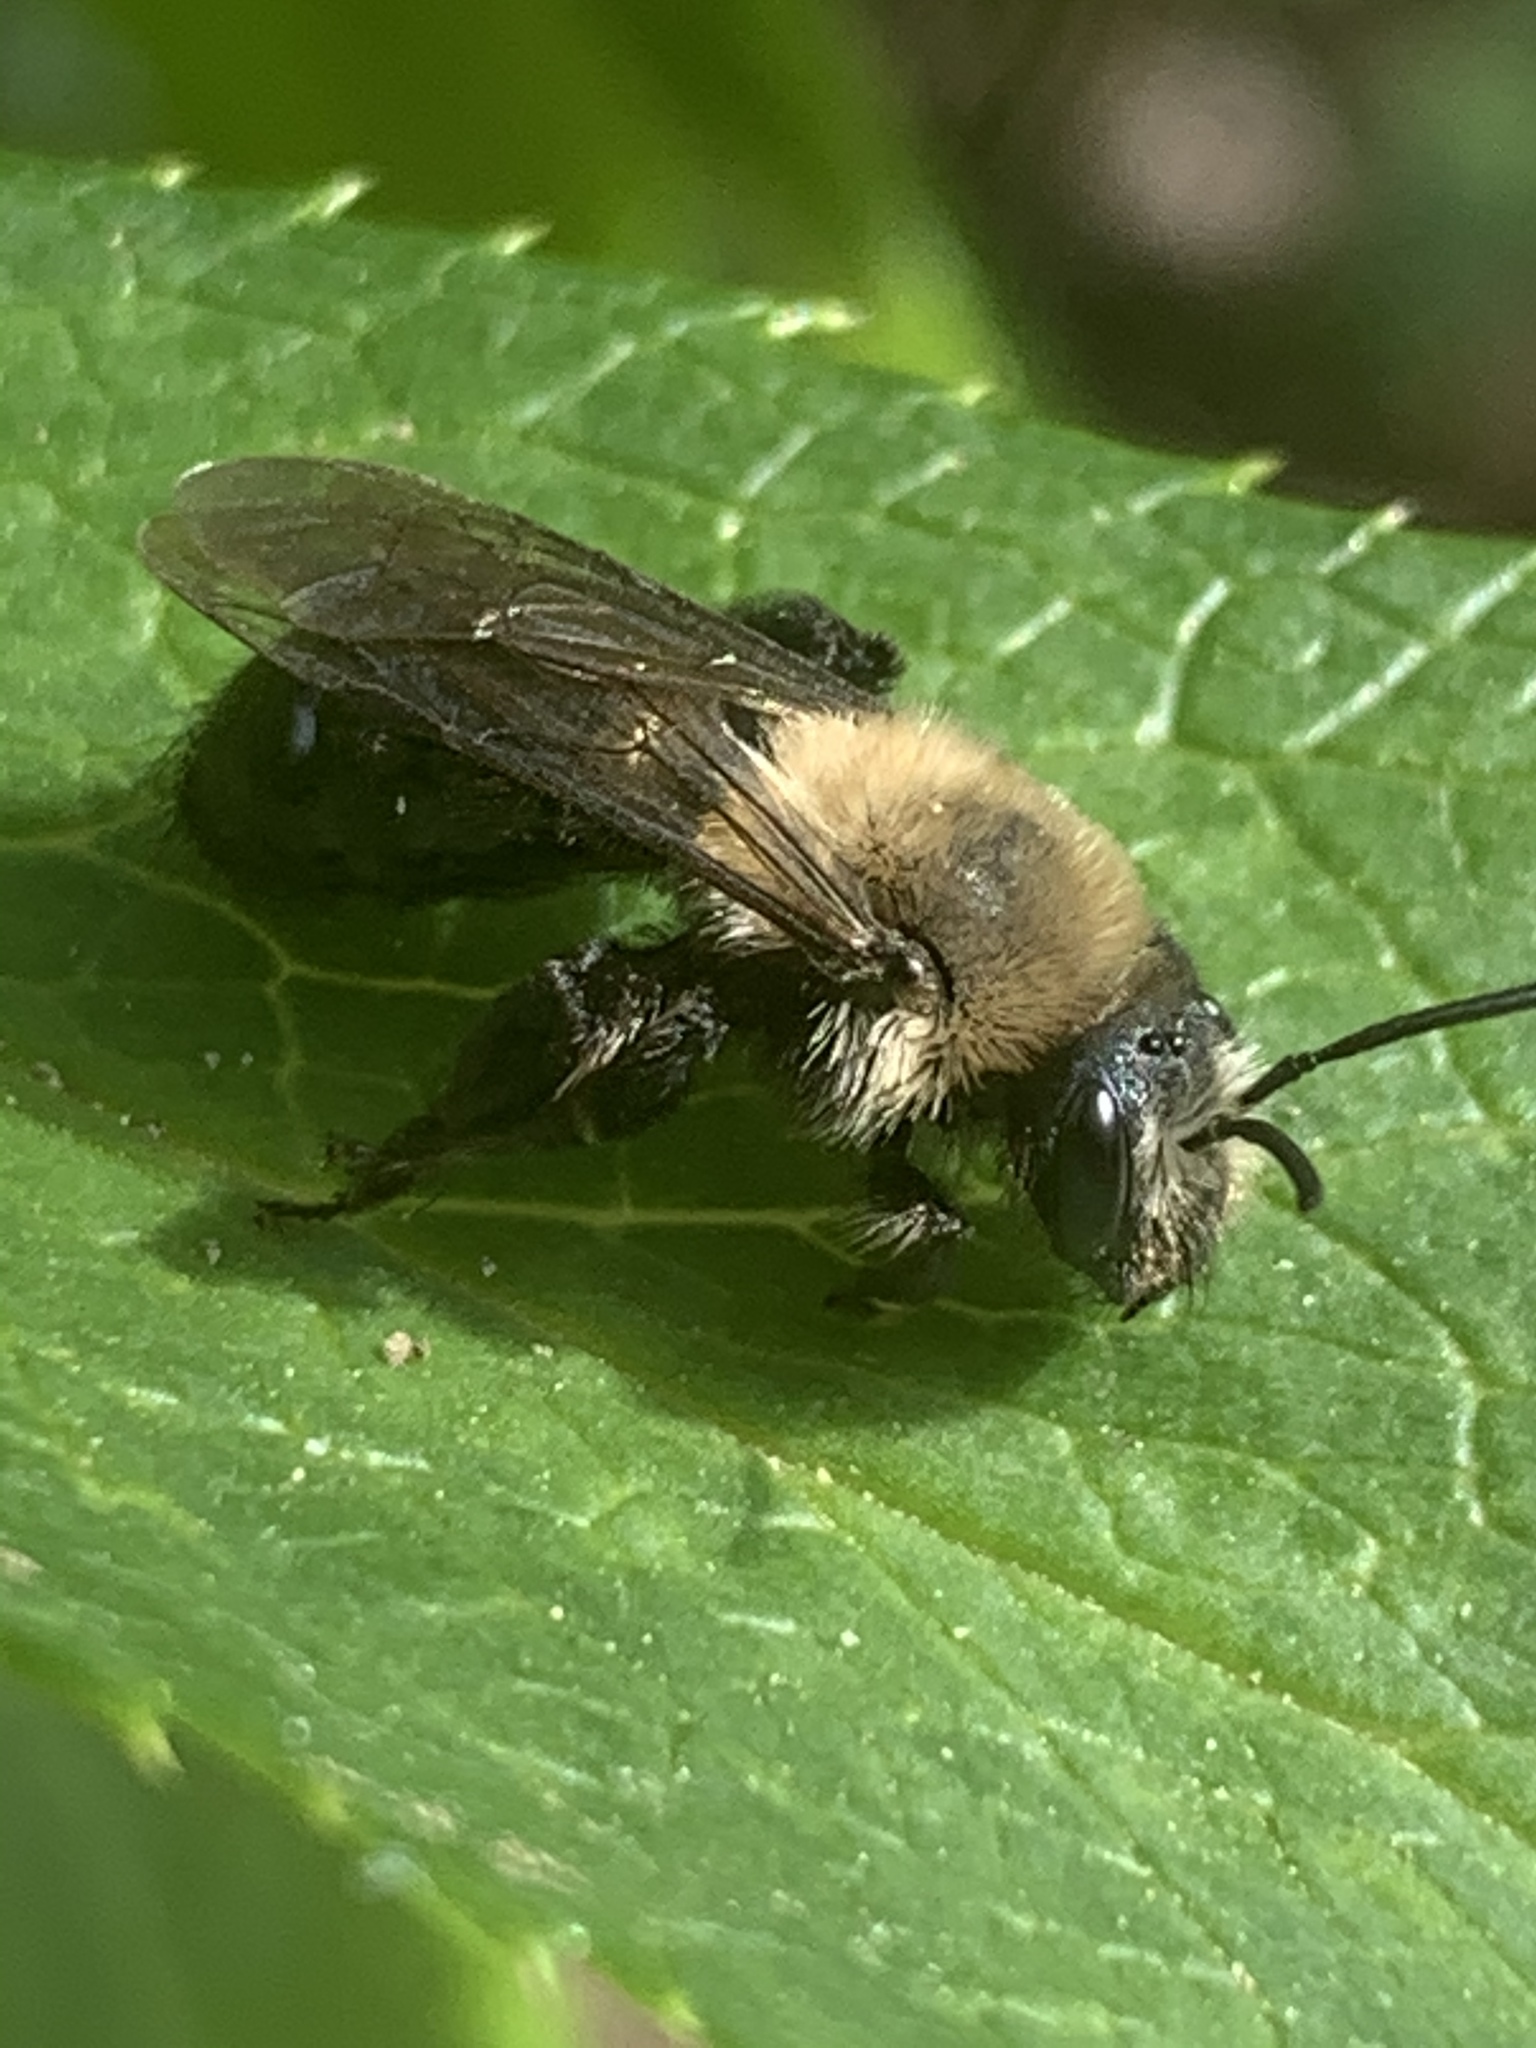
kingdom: Animalia
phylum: Arthropoda
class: Insecta
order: Hymenoptera
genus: Melandrena
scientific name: Melandrena
